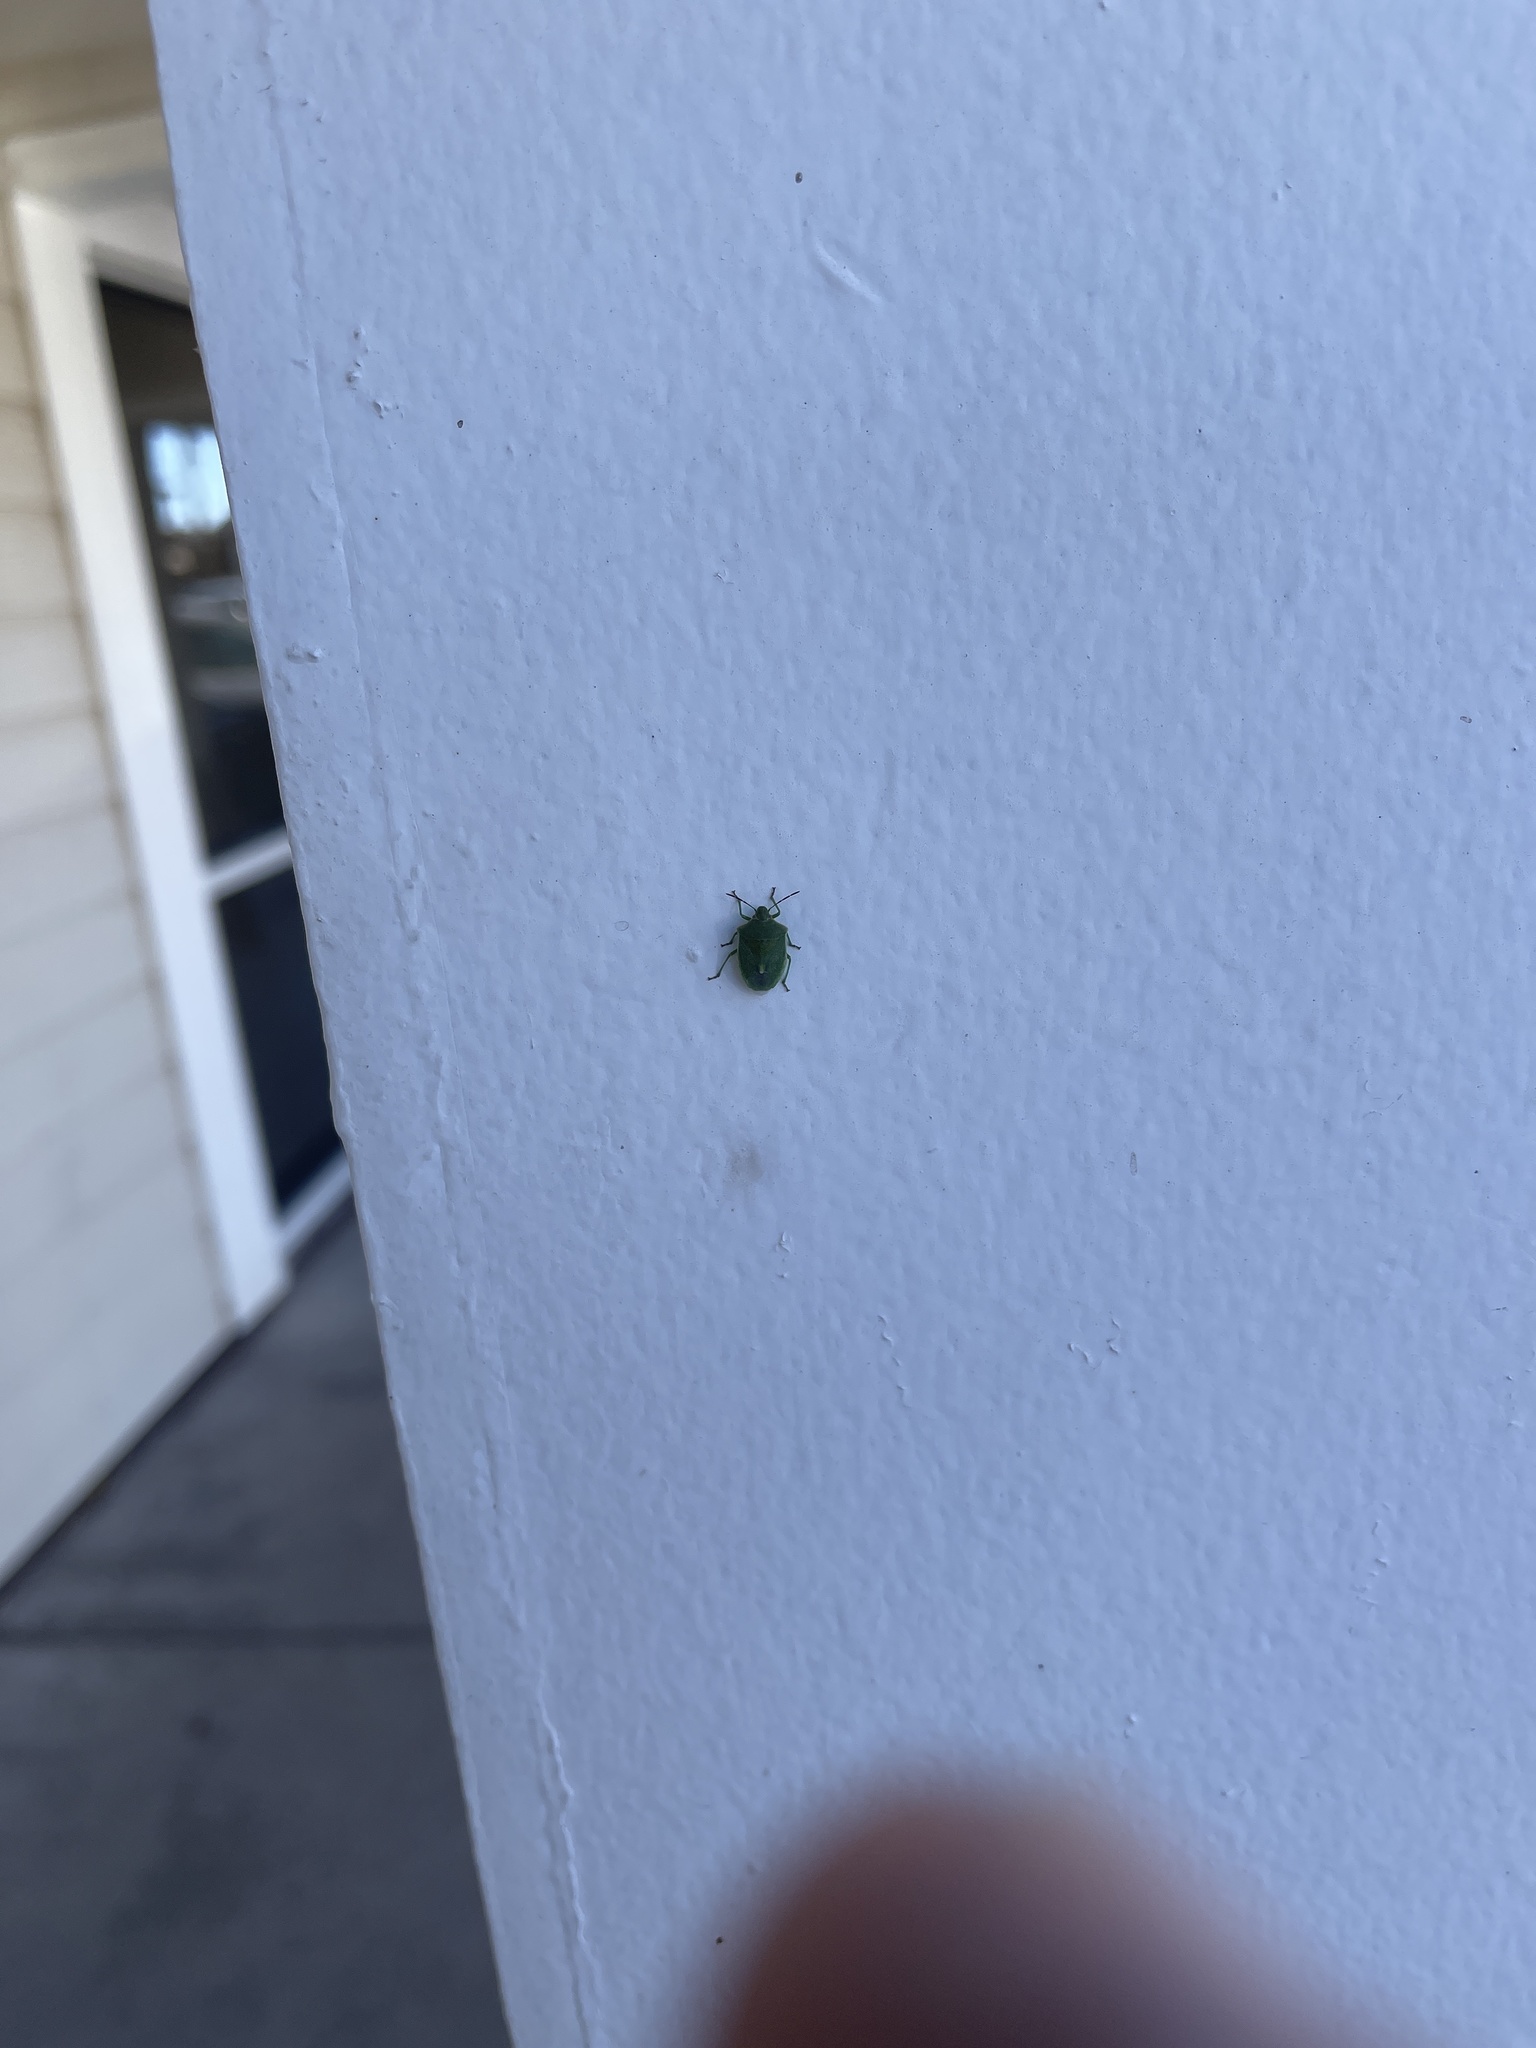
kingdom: Animalia
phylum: Arthropoda
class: Insecta
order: Hemiptera
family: Pentatomidae
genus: Thyanta
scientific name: Thyanta accerra
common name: Stink bug
